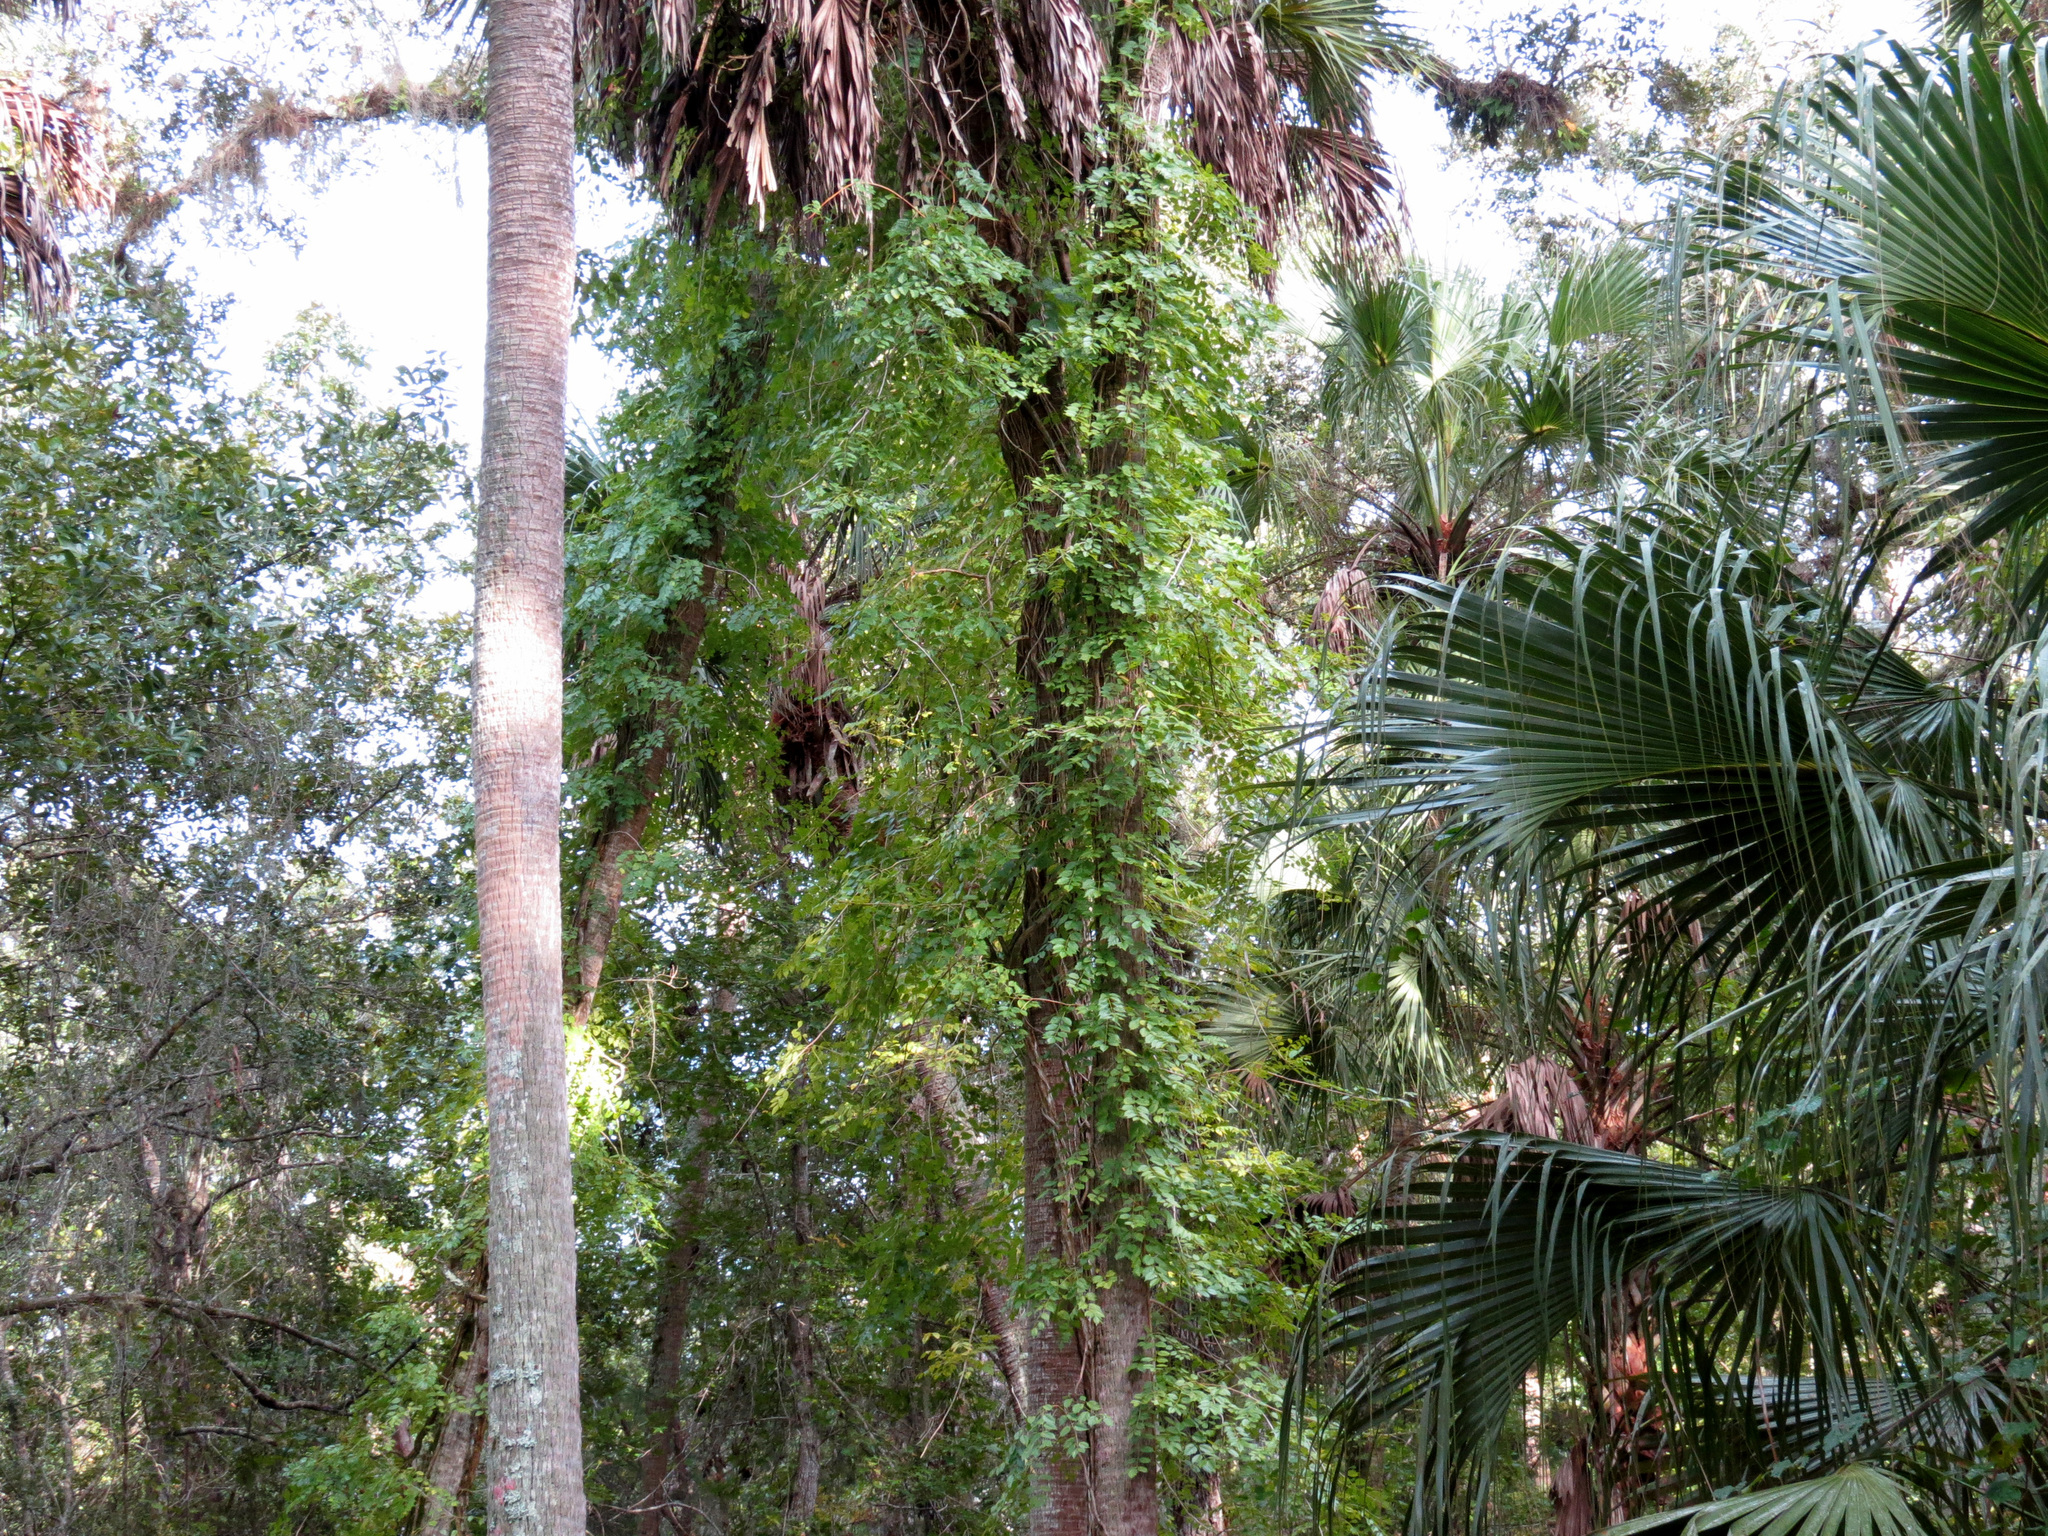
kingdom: Plantae
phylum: Tracheophyta
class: Magnoliopsida
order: Lamiales
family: Bignoniaceae
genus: Campsis
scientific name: Campsis radicans
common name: Trumpet-creeper
